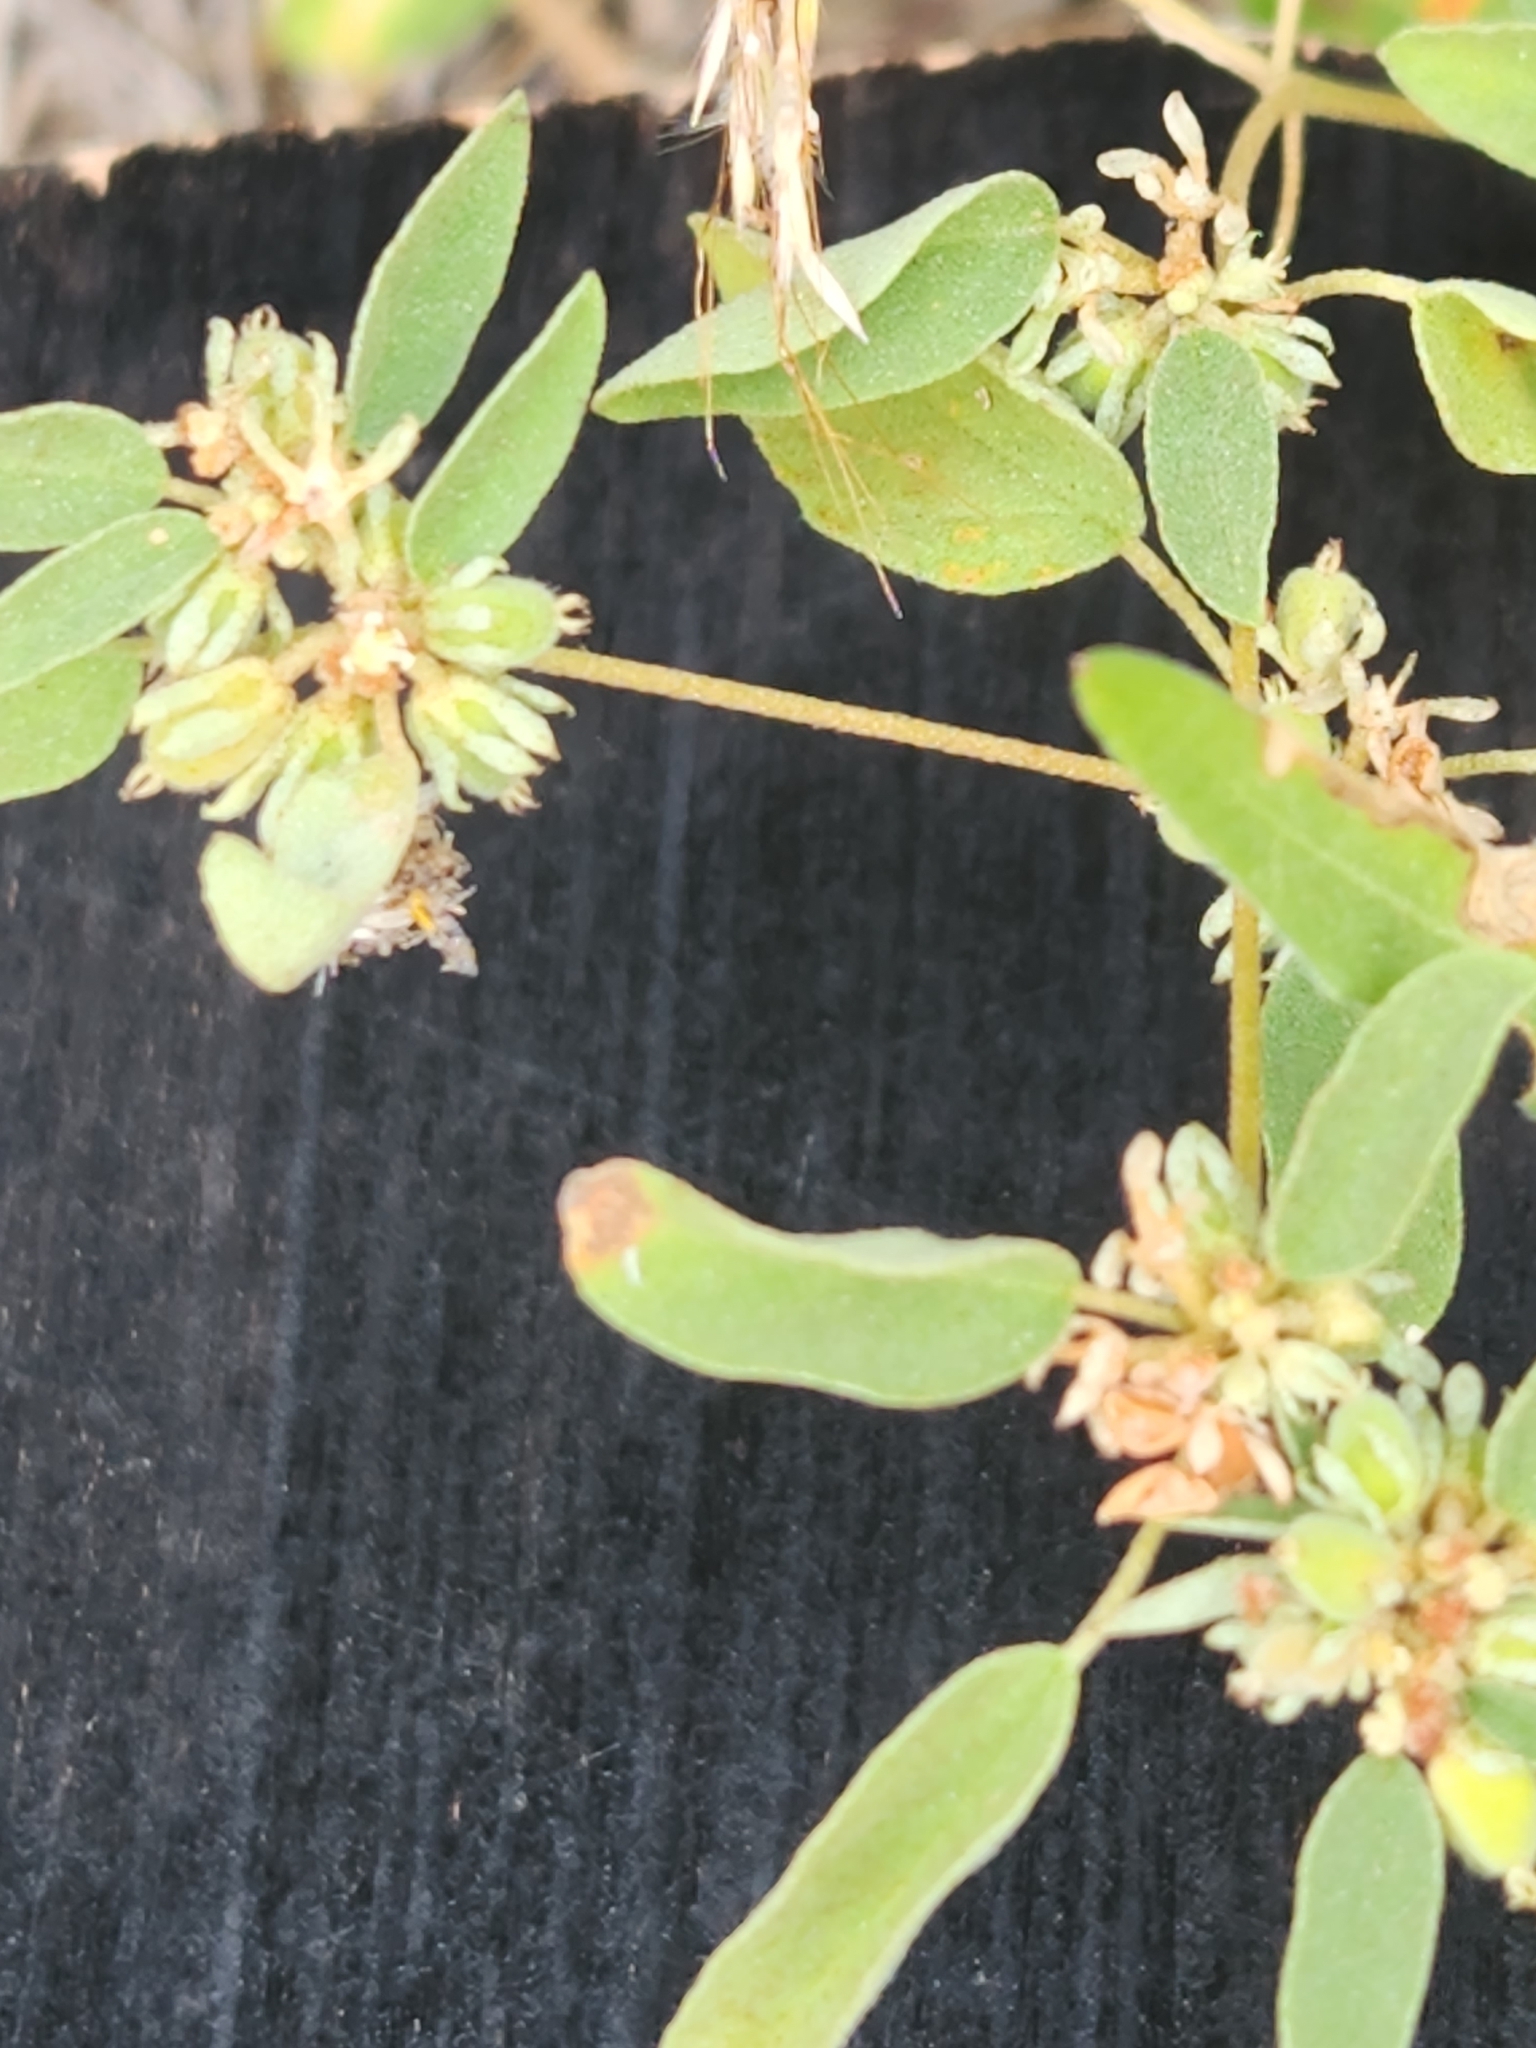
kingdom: Plantae
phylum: Tracheophyta
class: Magnoliopsida
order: Malpighiales
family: Euphorbiaceae
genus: Croton
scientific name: Croton monanthogynus
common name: One-seed croton
